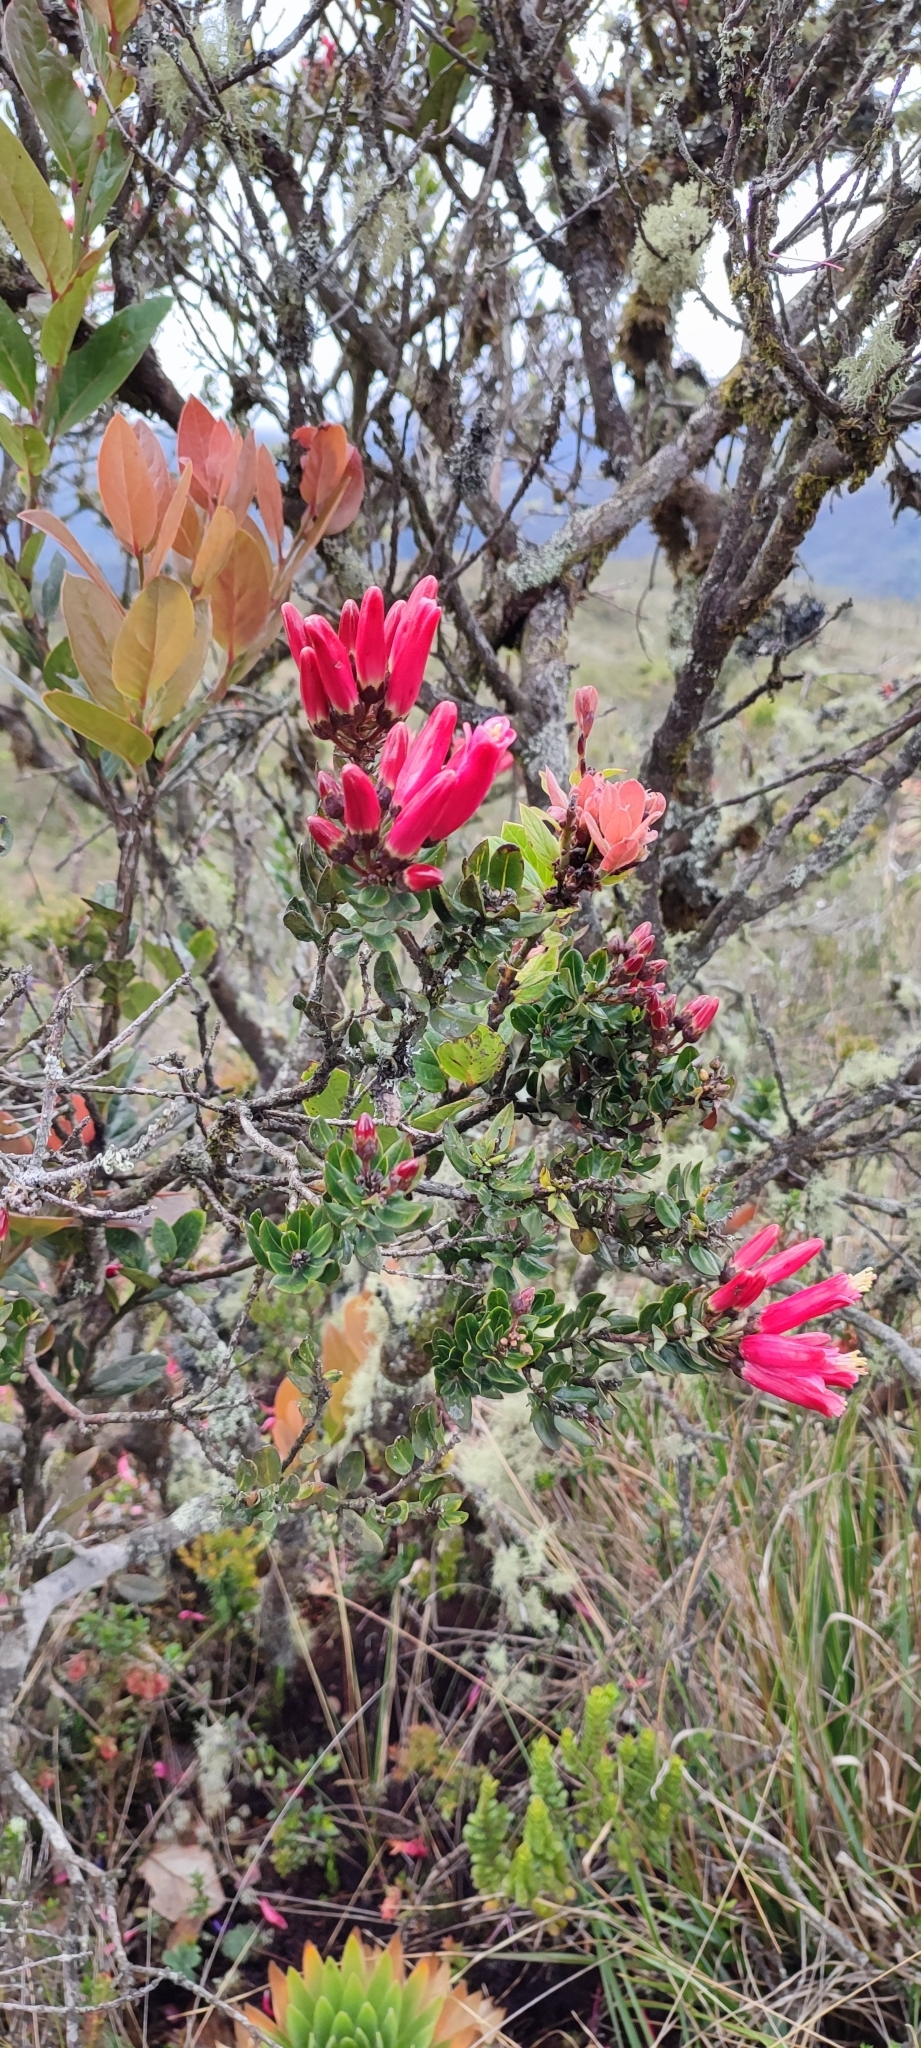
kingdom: Plantae
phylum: Tracheophyta
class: Magnoliopsida
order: Ericales
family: Ericaceae
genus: Bejaria
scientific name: Bejaria resinosa
